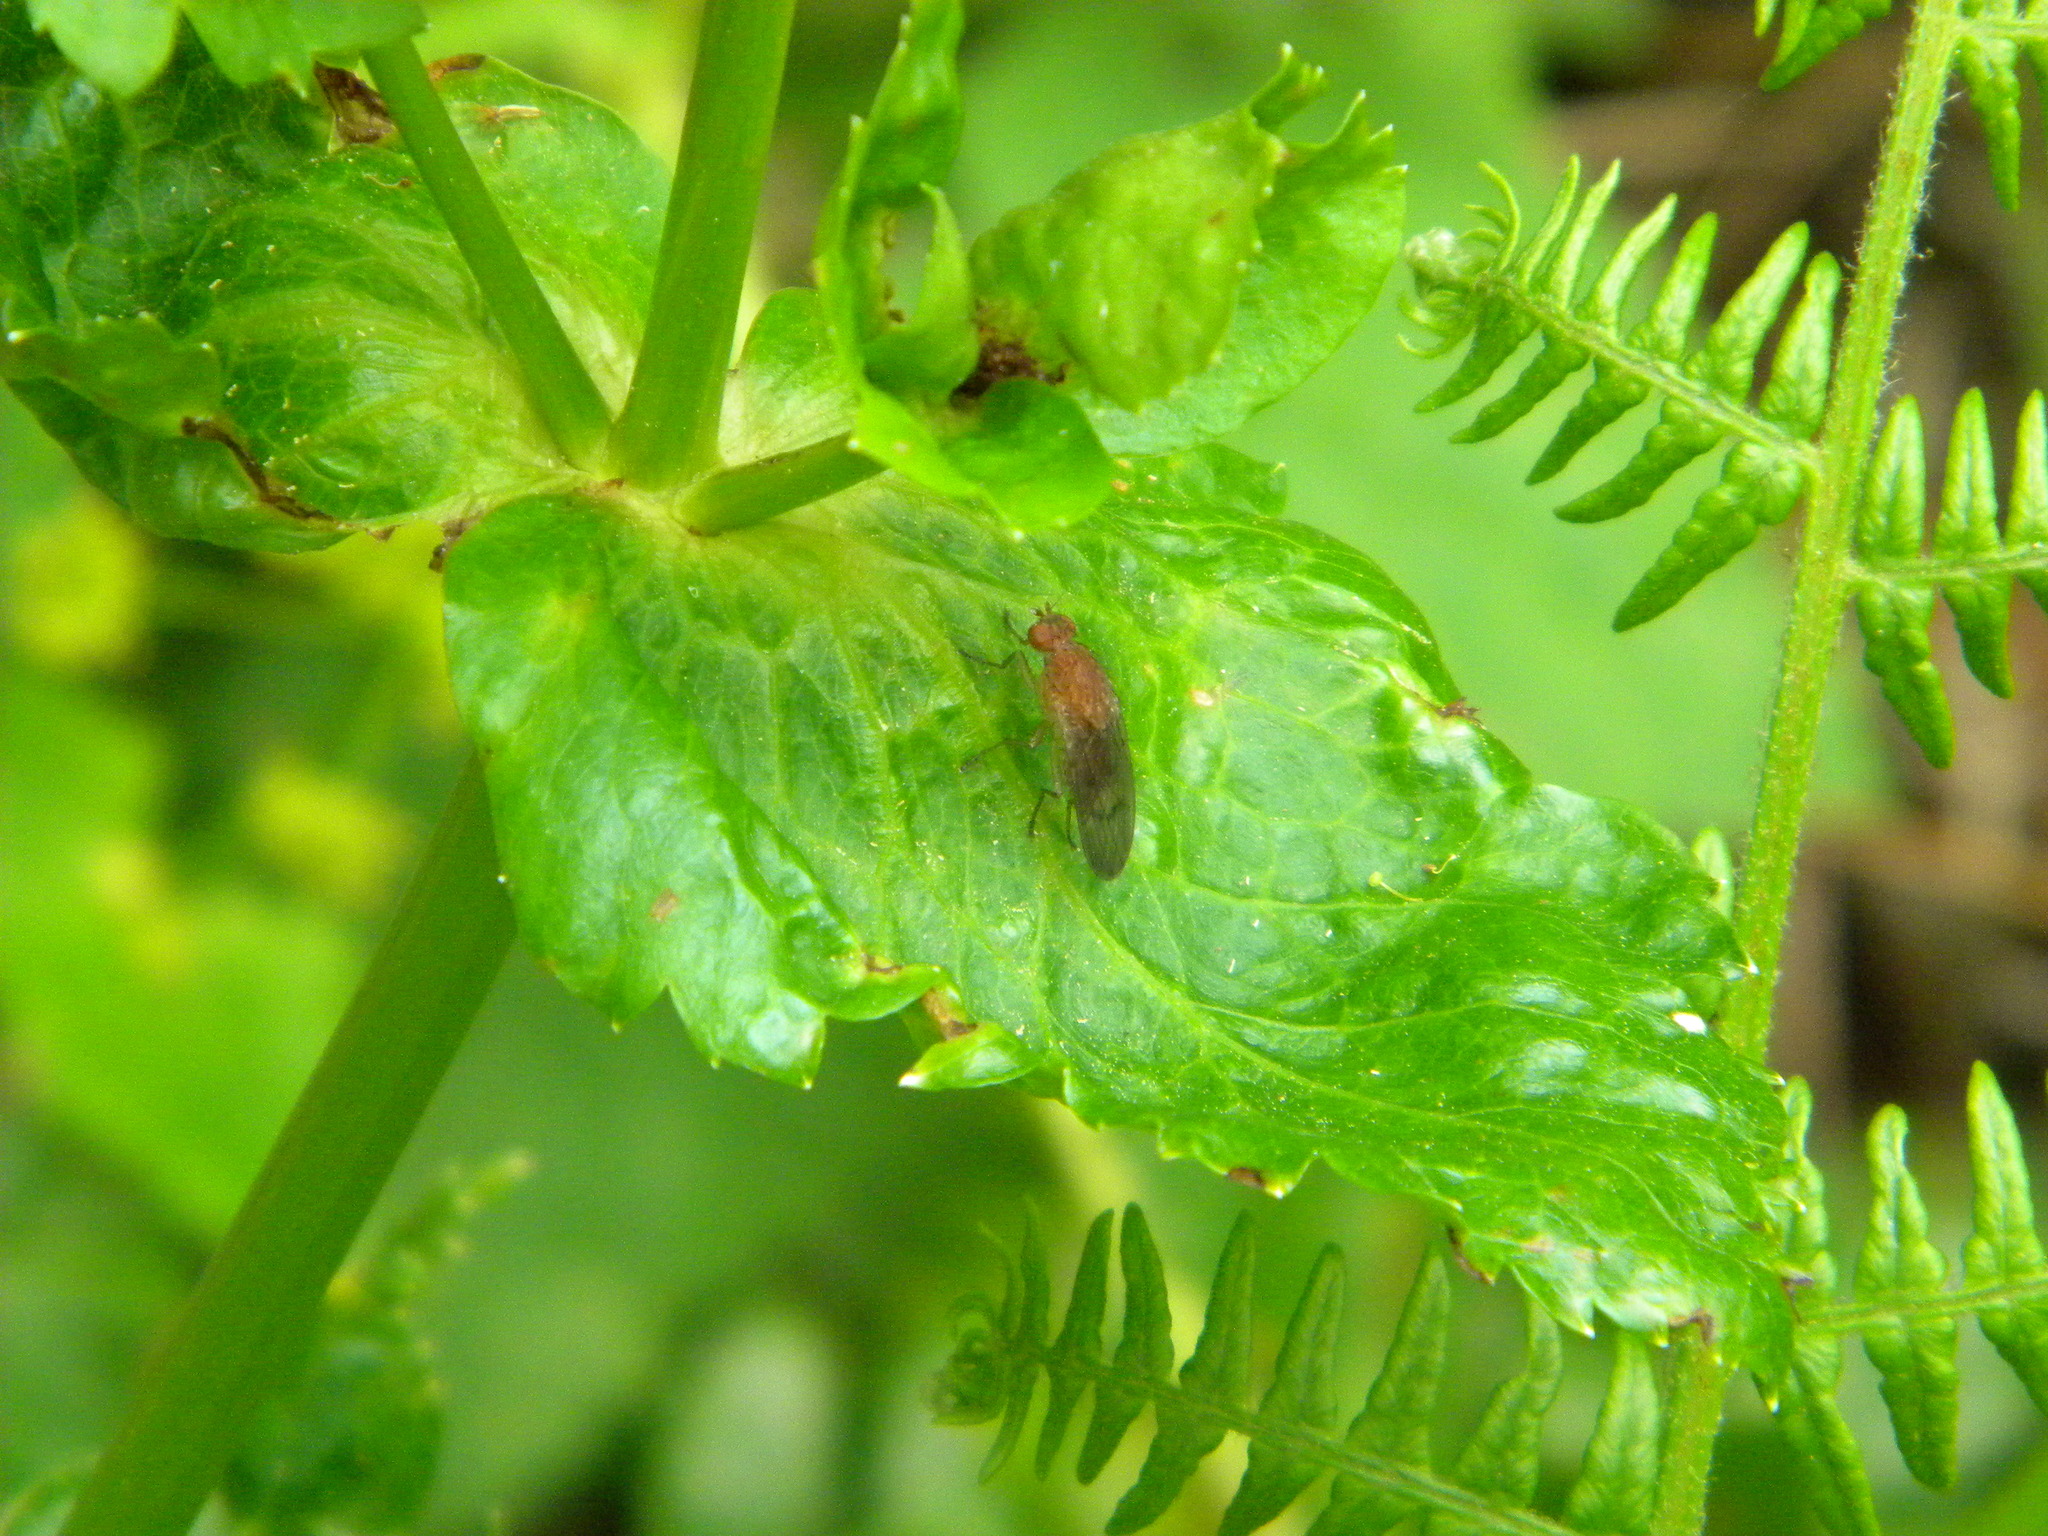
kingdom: Animalia
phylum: Arthropoda
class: Insecta
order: Diptera
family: Heleomyzidae
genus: Suillia
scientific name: Suillia
